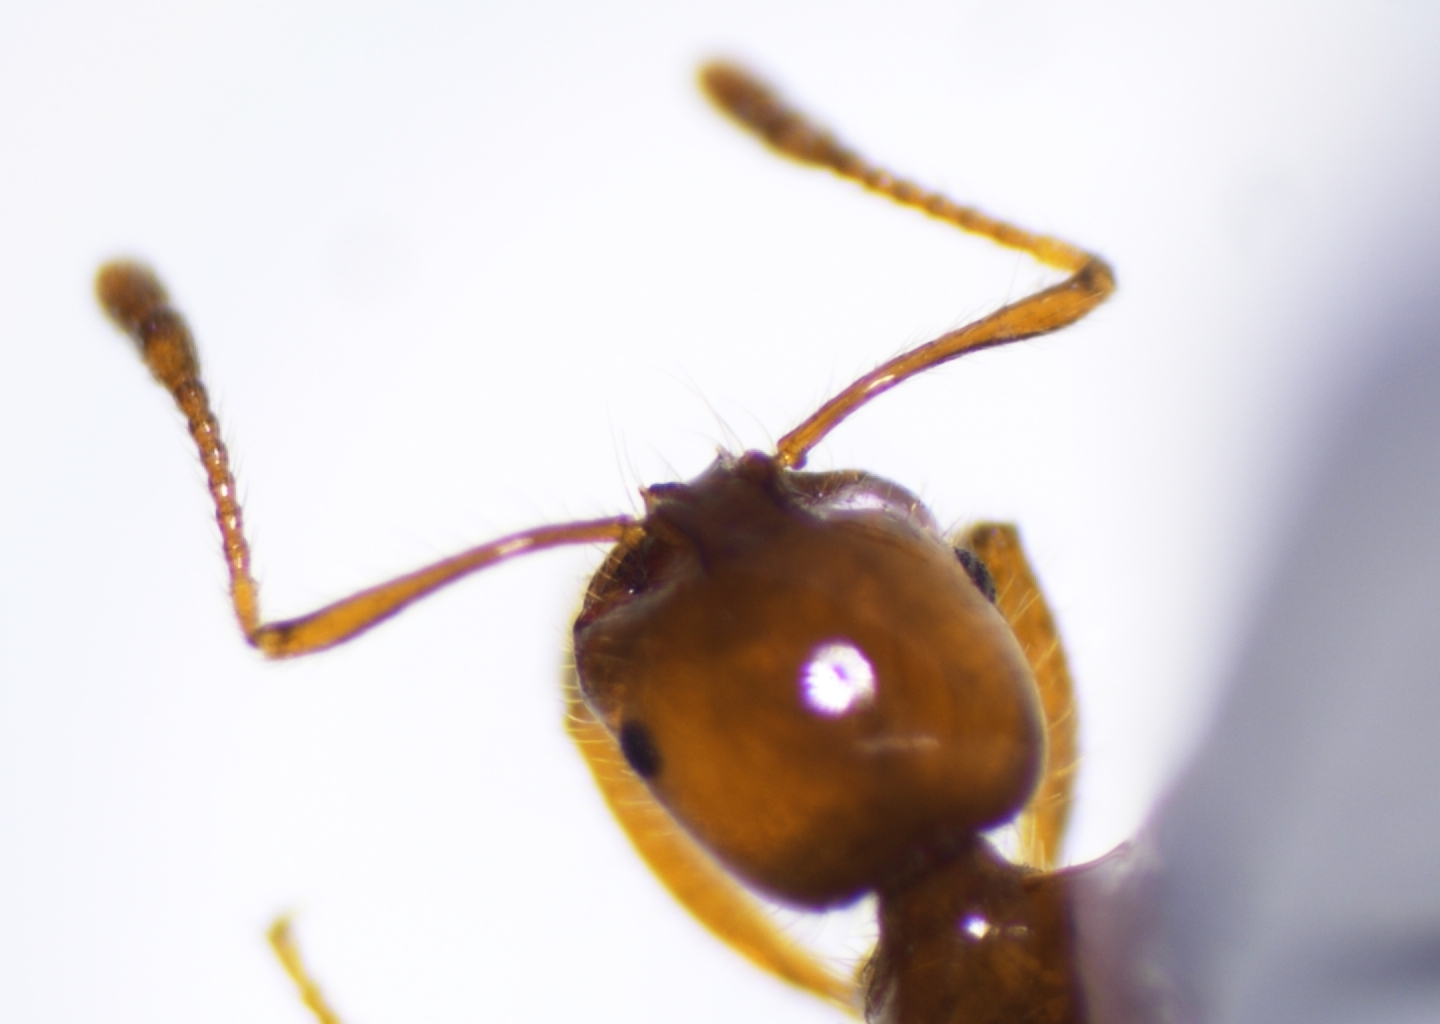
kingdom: Animalia
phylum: Arthropoda
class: Insecta
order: Hymenoptera
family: Formicidae
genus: Solenopsis
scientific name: Solenopsis geminata
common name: Tropical fire ant
